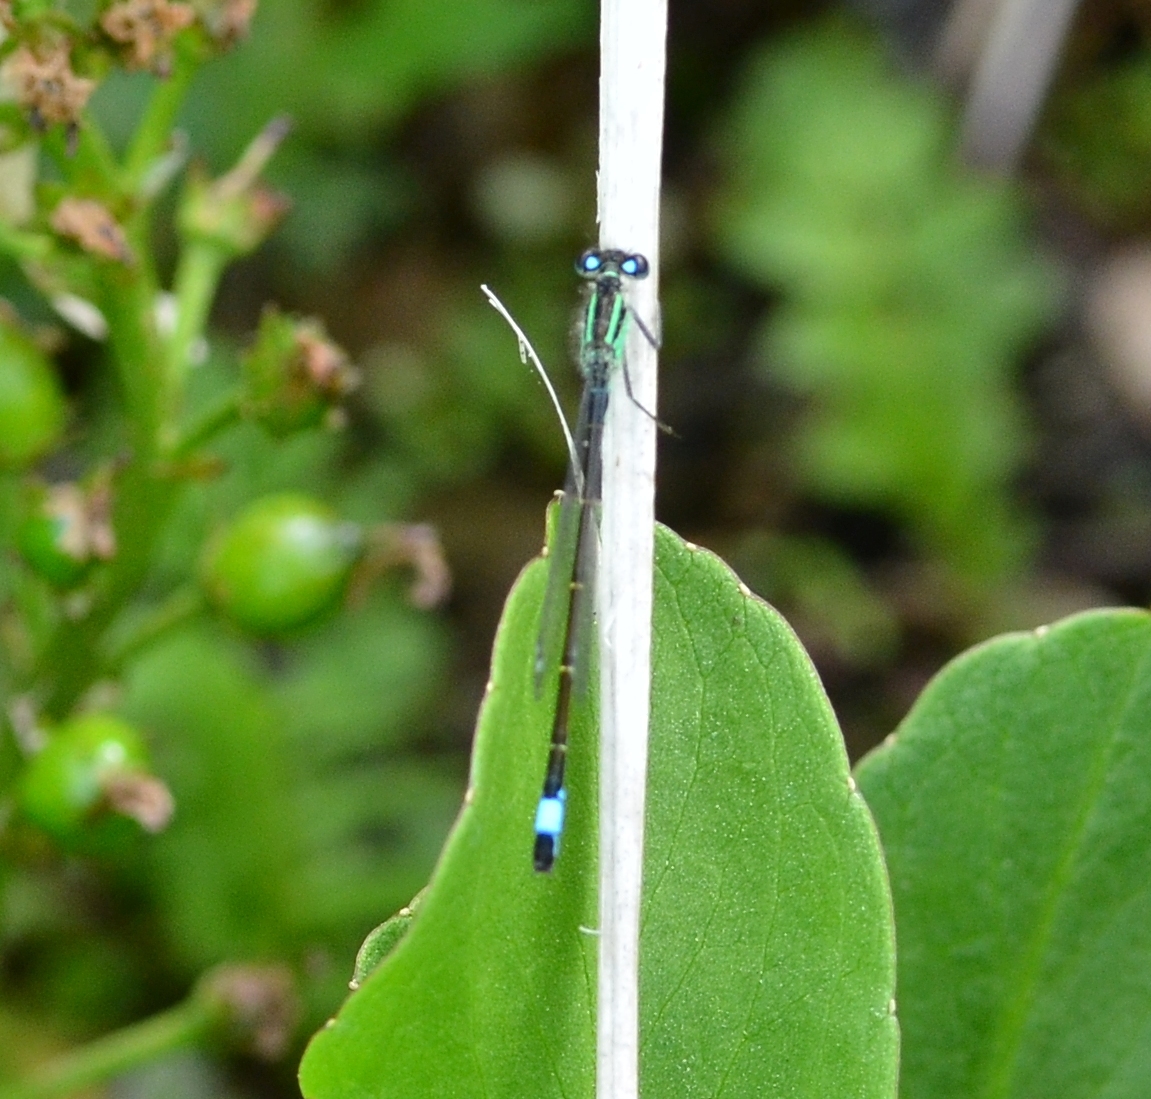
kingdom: Animalia
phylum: Arthropoda
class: Insecta
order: Odonata
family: Coenagrionidae
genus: Ischnura
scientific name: Ischnura elegans
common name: Blue-tailed damselfly
